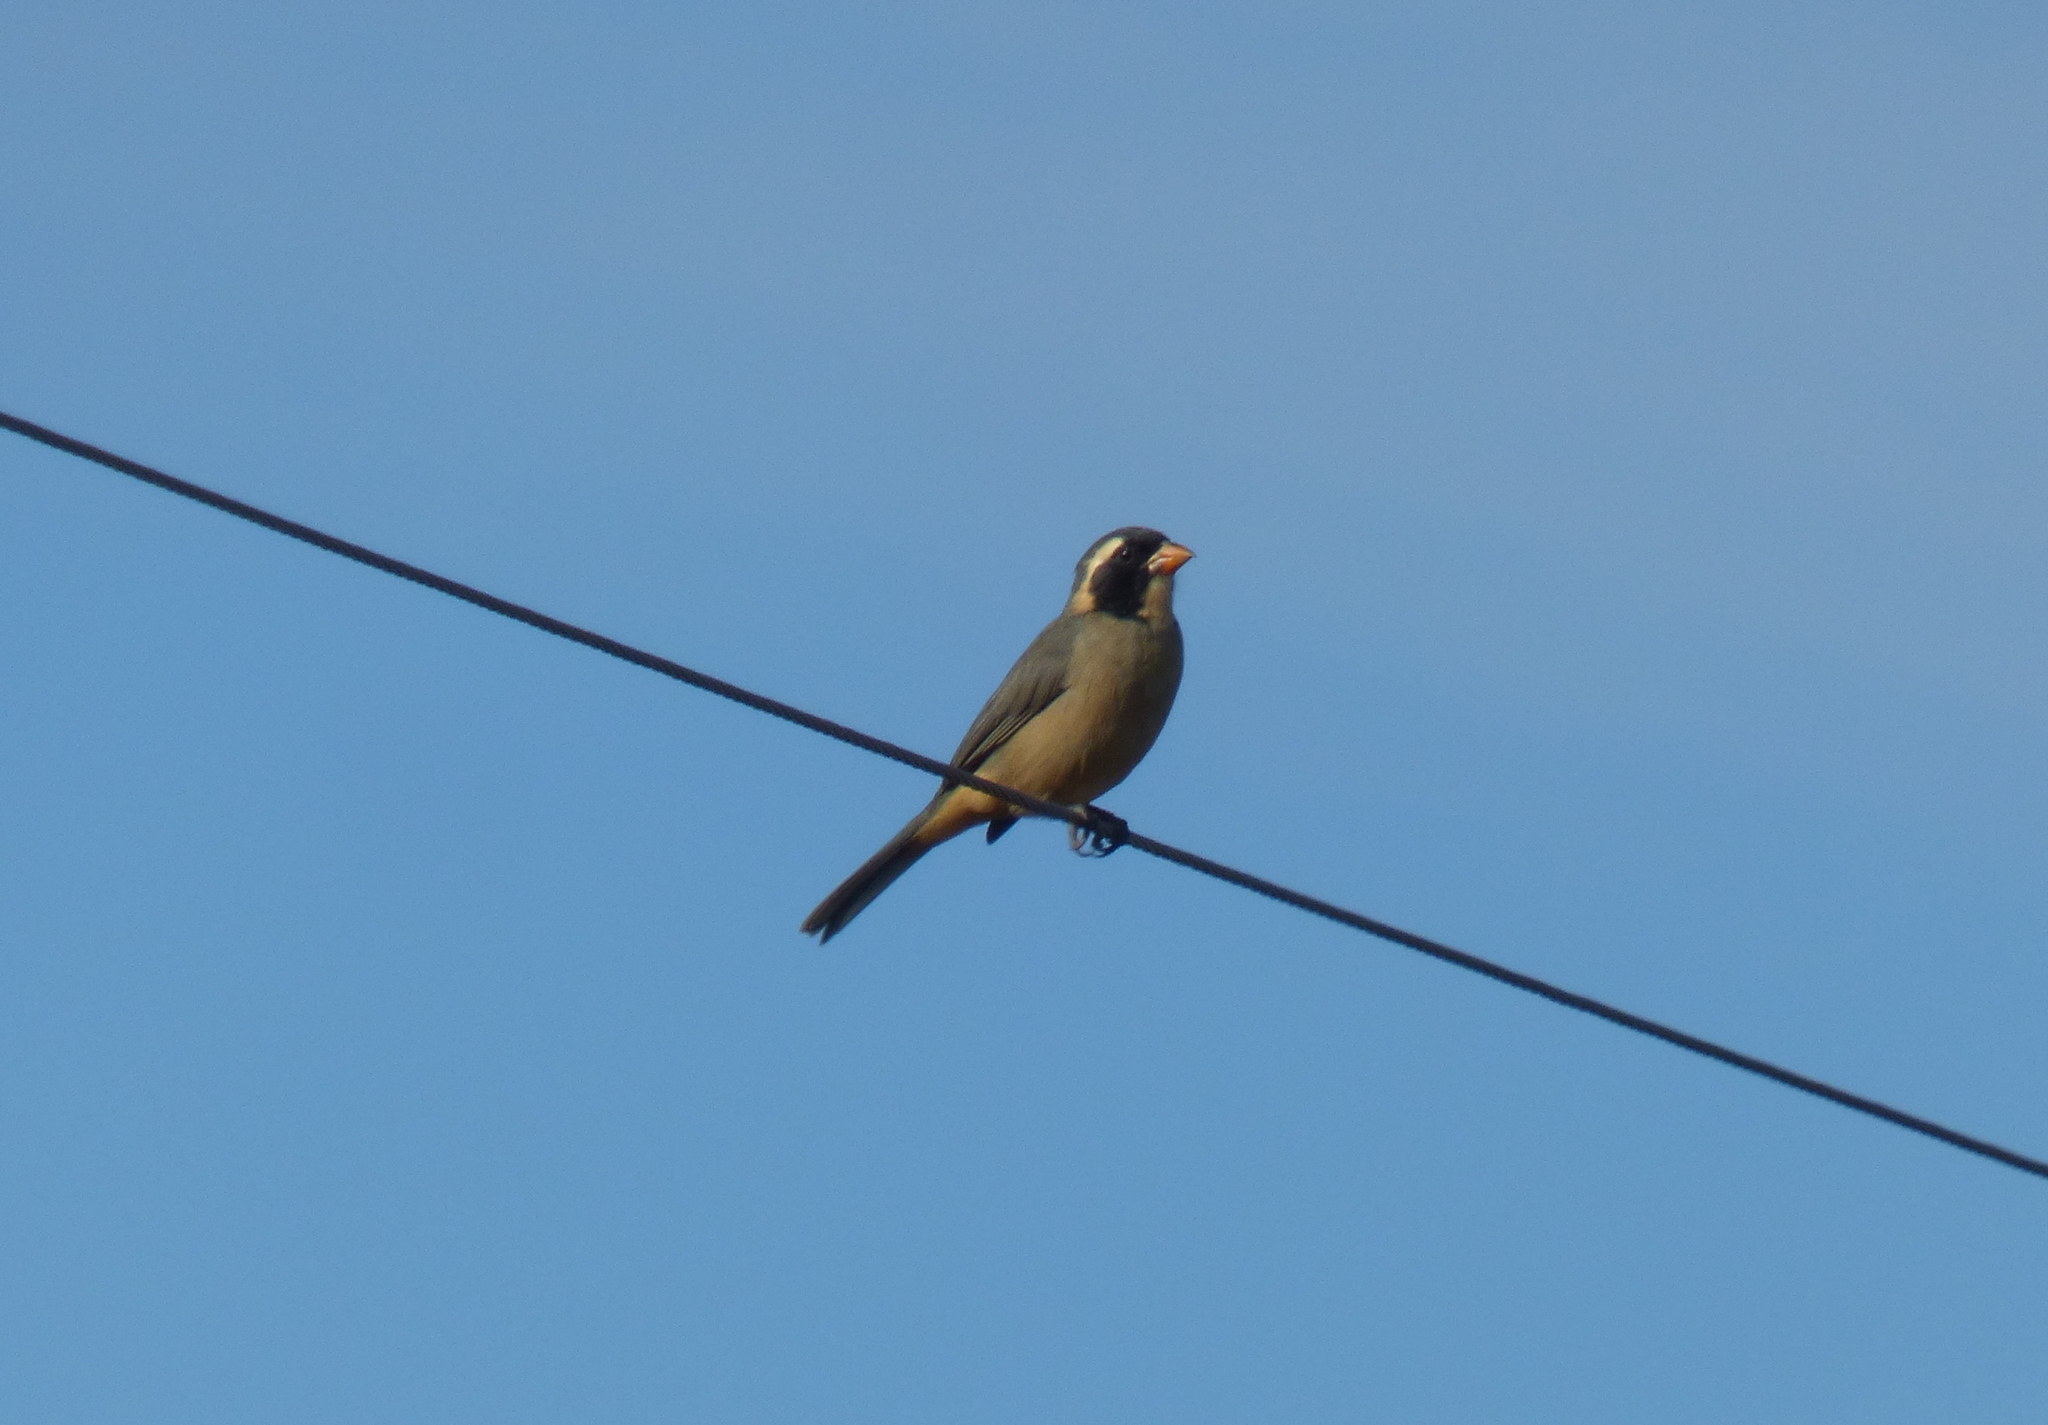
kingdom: Animalia
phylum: Chordata
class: Aves
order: Passeriformes
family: Thraupidae
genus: Saltator
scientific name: Saltator aurantiirostris
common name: Golden-billed saltator
